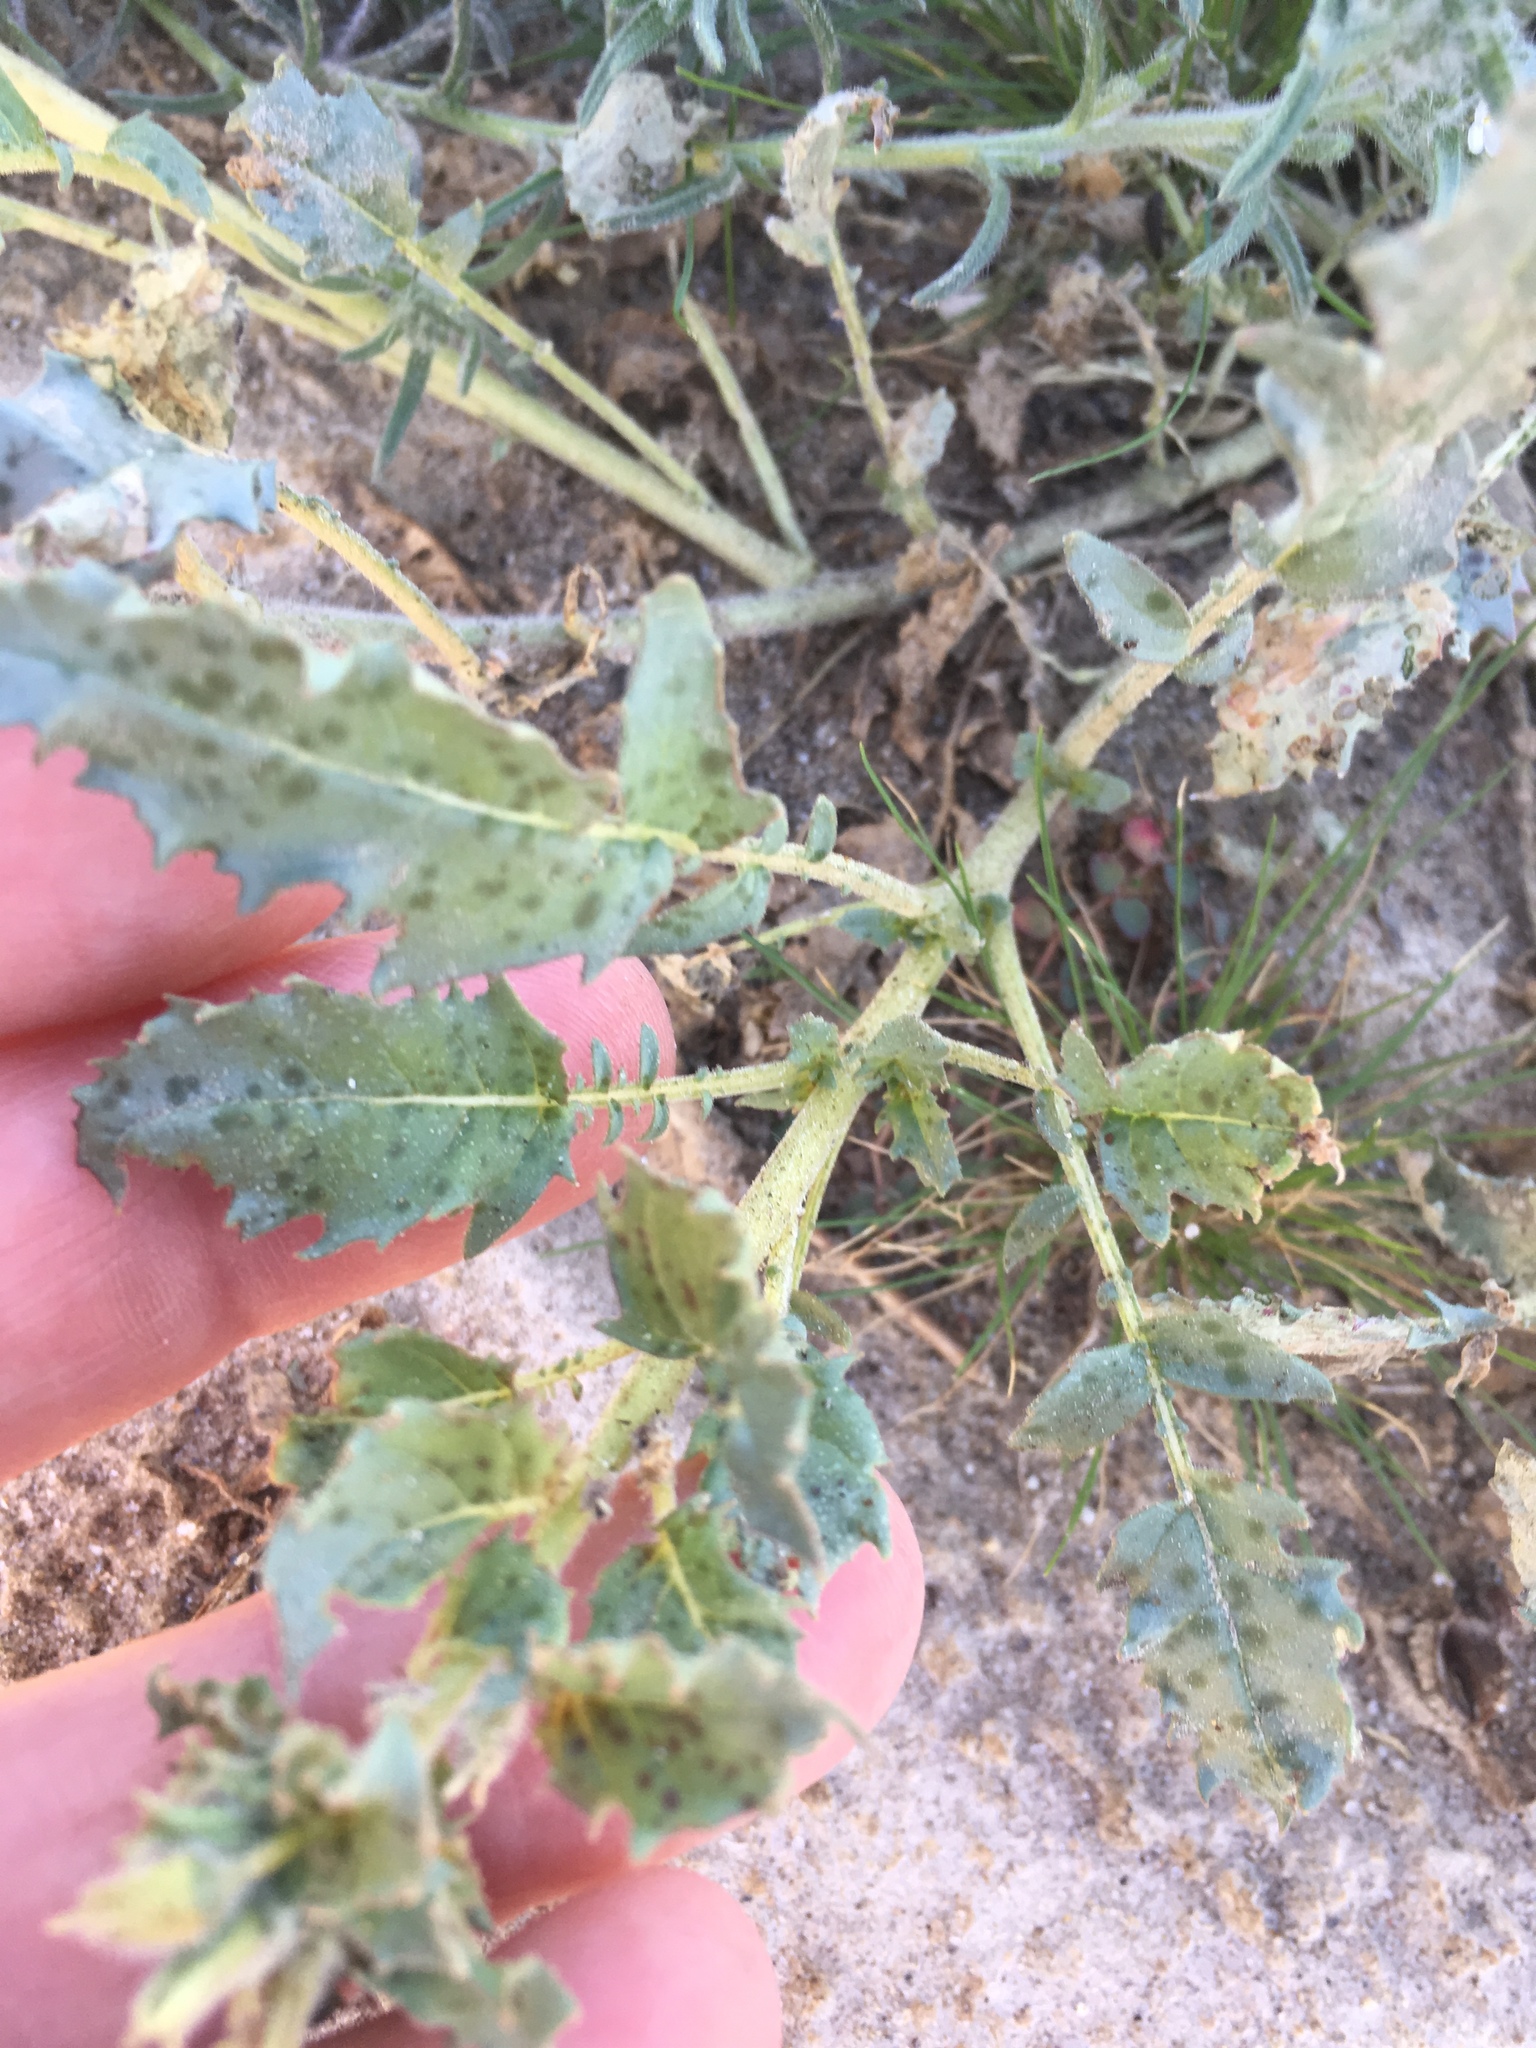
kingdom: Plantae
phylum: Tracheophyta
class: Magnoliopsida
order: Myrtales
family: Onagraceae
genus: Chylismia
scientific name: Chylismia claviformis
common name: Browneyes
